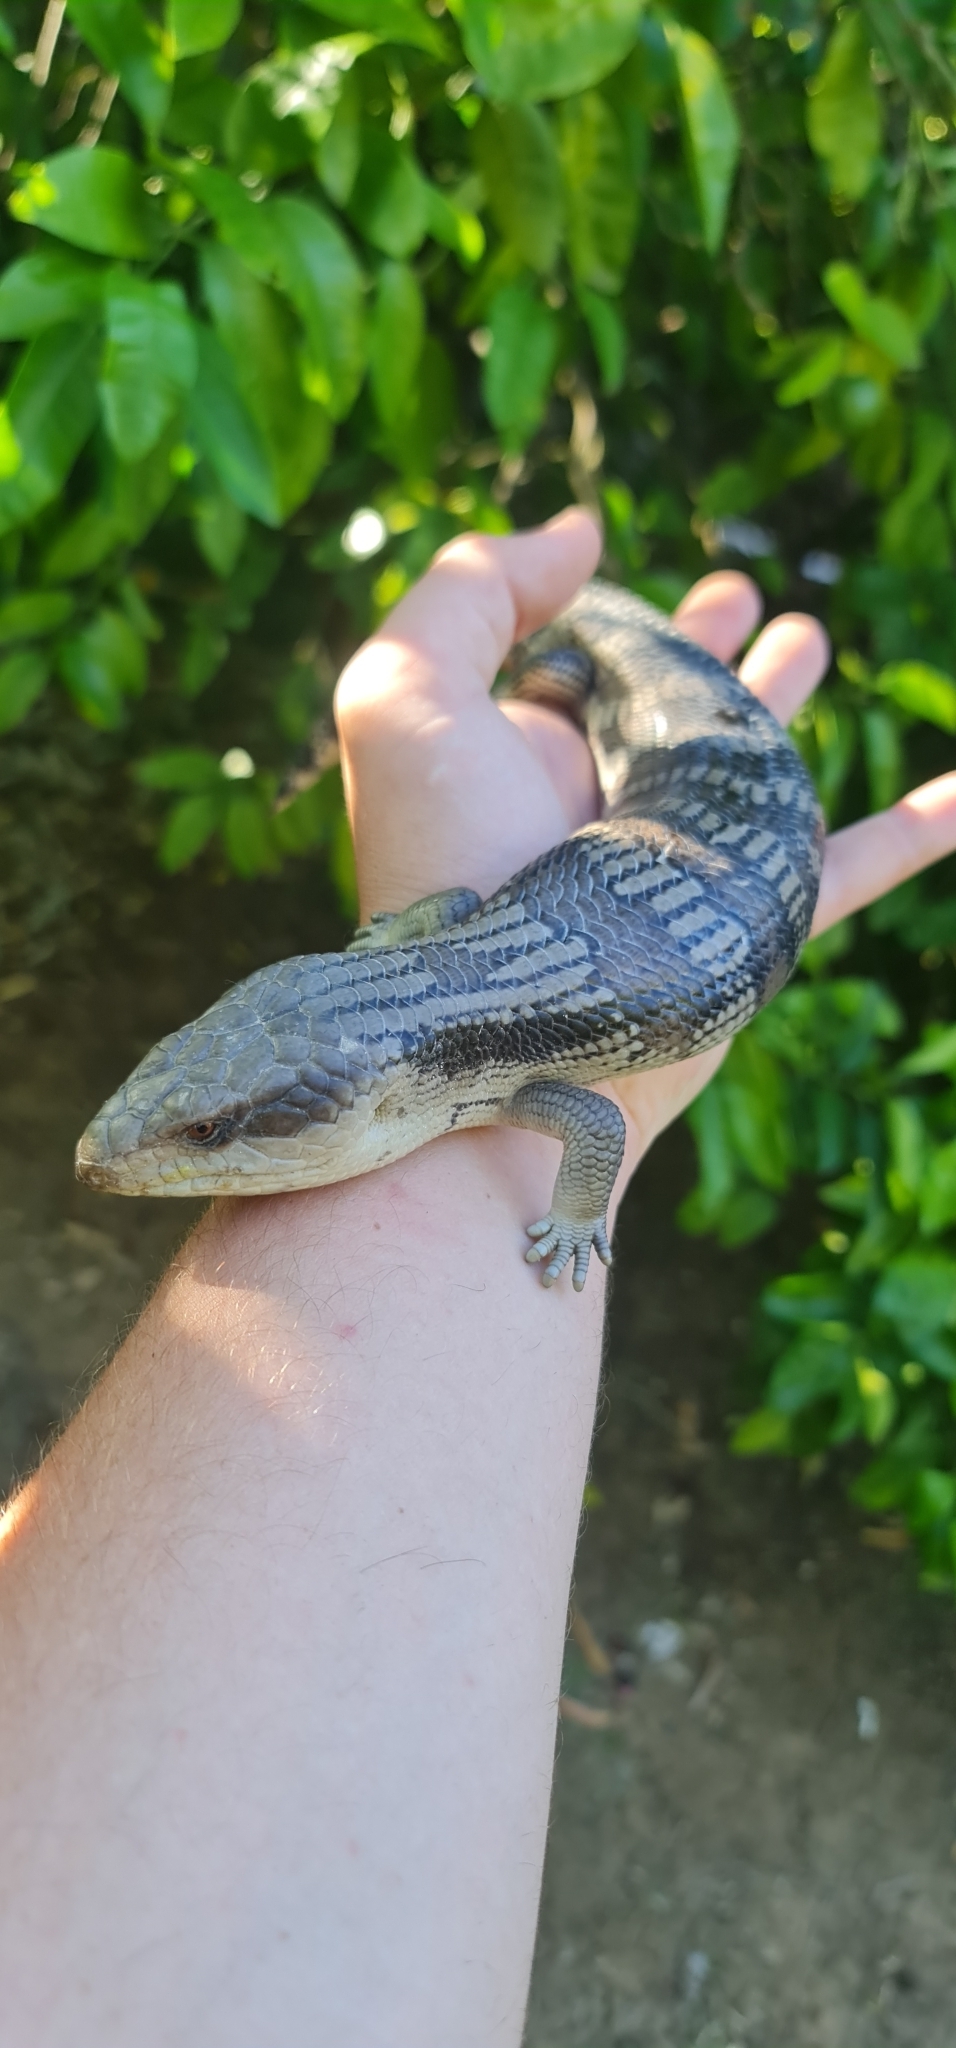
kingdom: Animalia
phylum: Chordata
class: Squamata
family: Scincidae
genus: Tiliqua
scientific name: Tiliqua scincoides
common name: Common bluetongue
